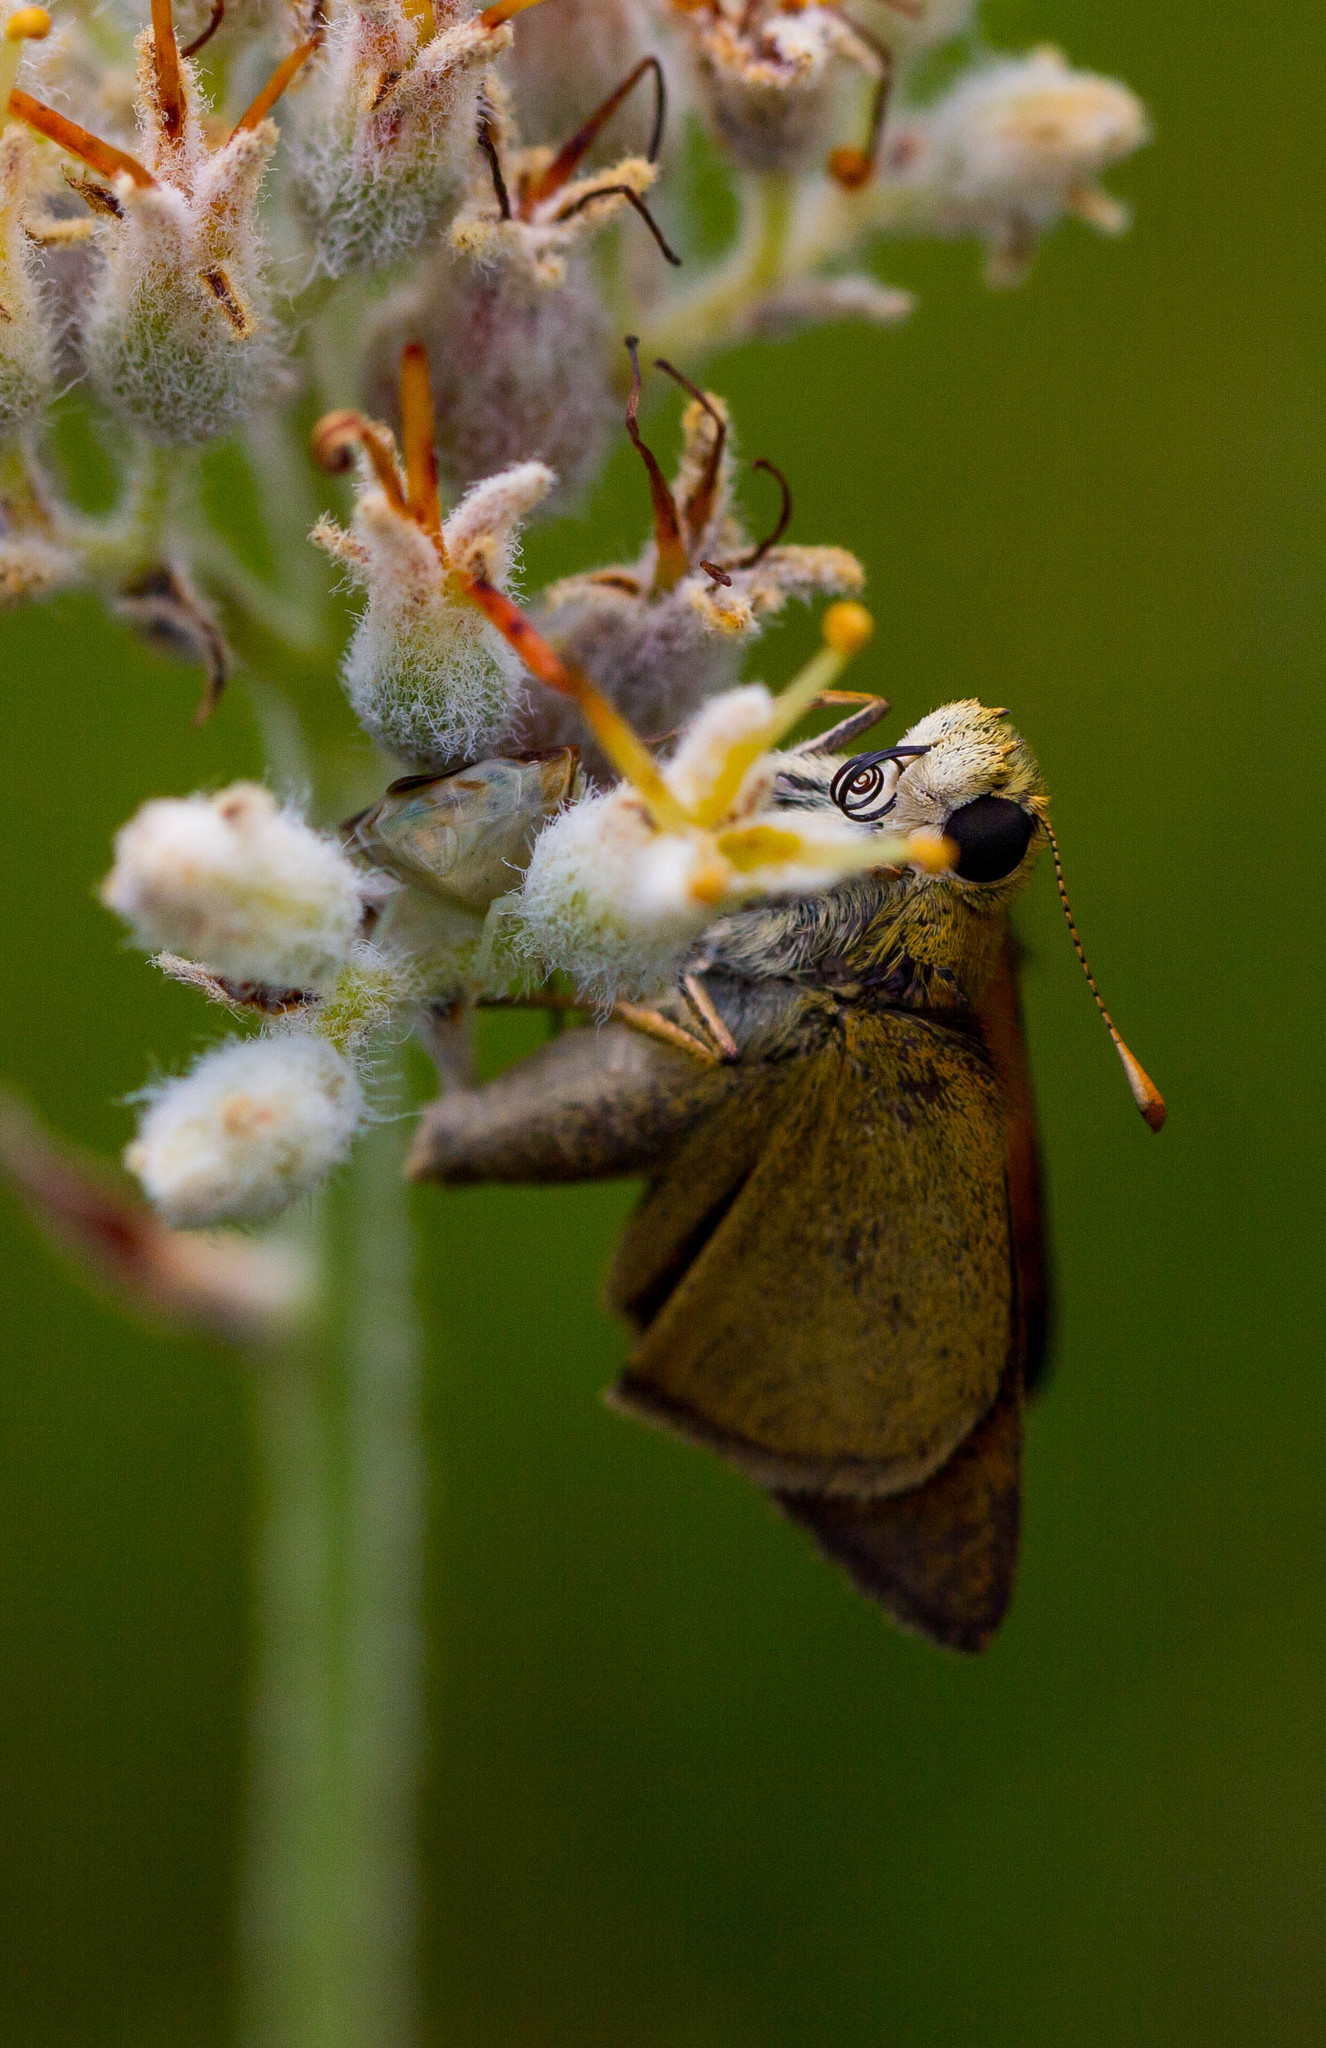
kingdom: Animalia
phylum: Arthropoda
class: Insecta
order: Lepidoptera
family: Hesperiidae
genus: Polites
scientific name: Polites themistocles
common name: Tawny-edged skipper
